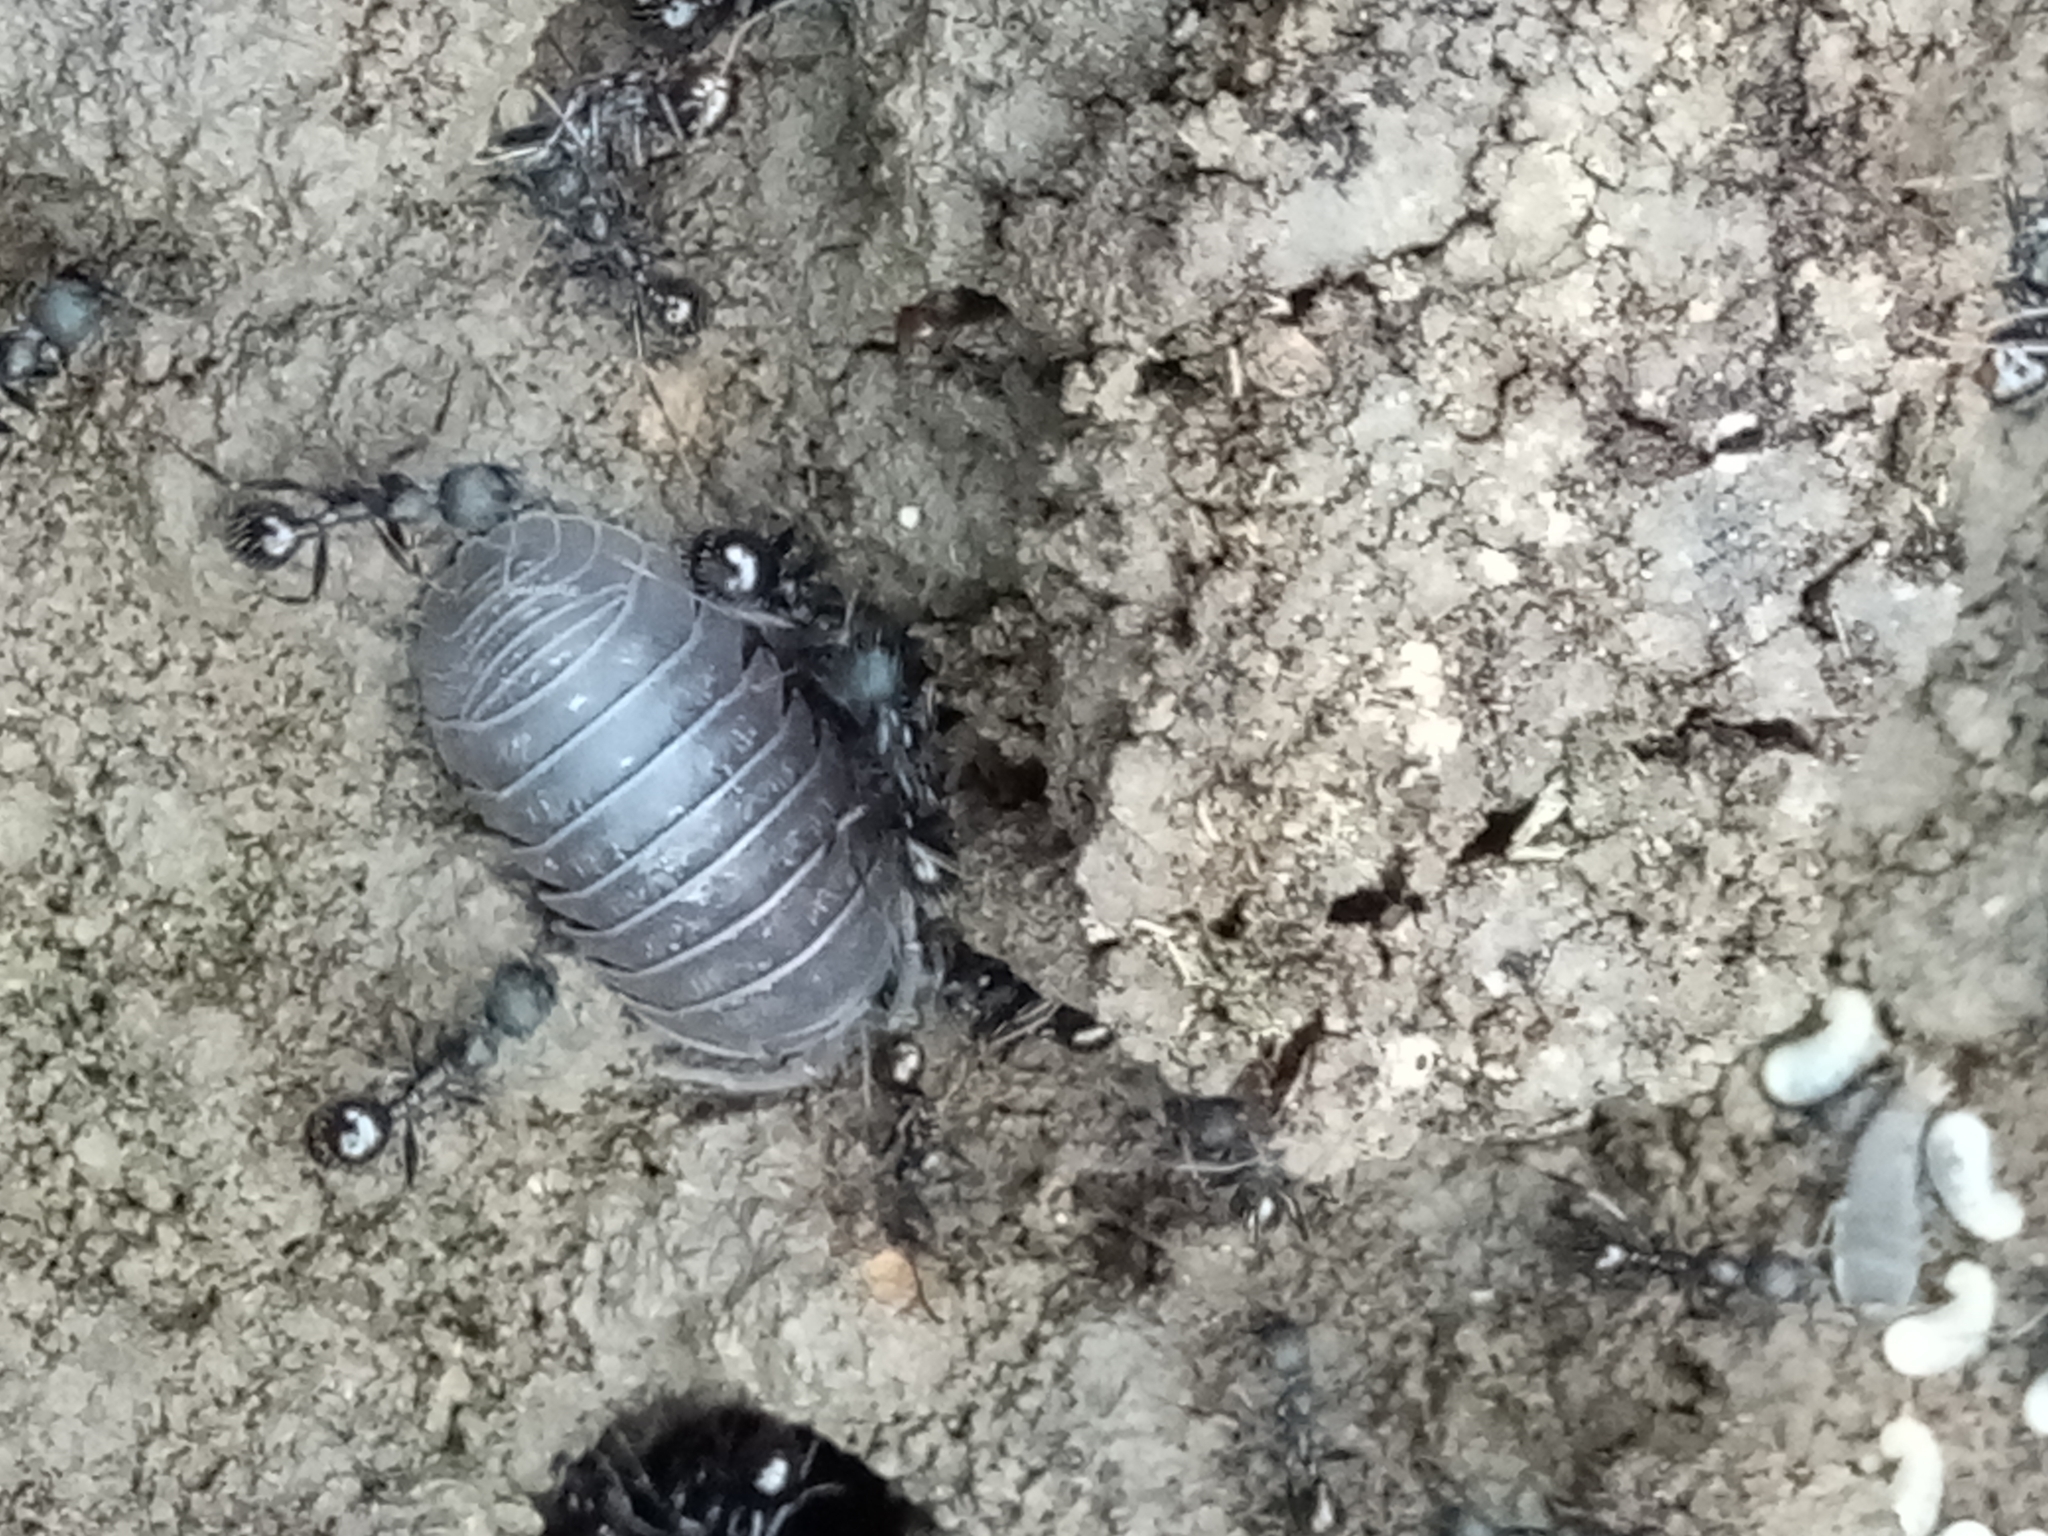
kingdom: Animalia
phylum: Arthropoda
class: Malacostraca
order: Isopoda
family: Armadillidiidae
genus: Armadillidium
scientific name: Armadillidium sulcatum
